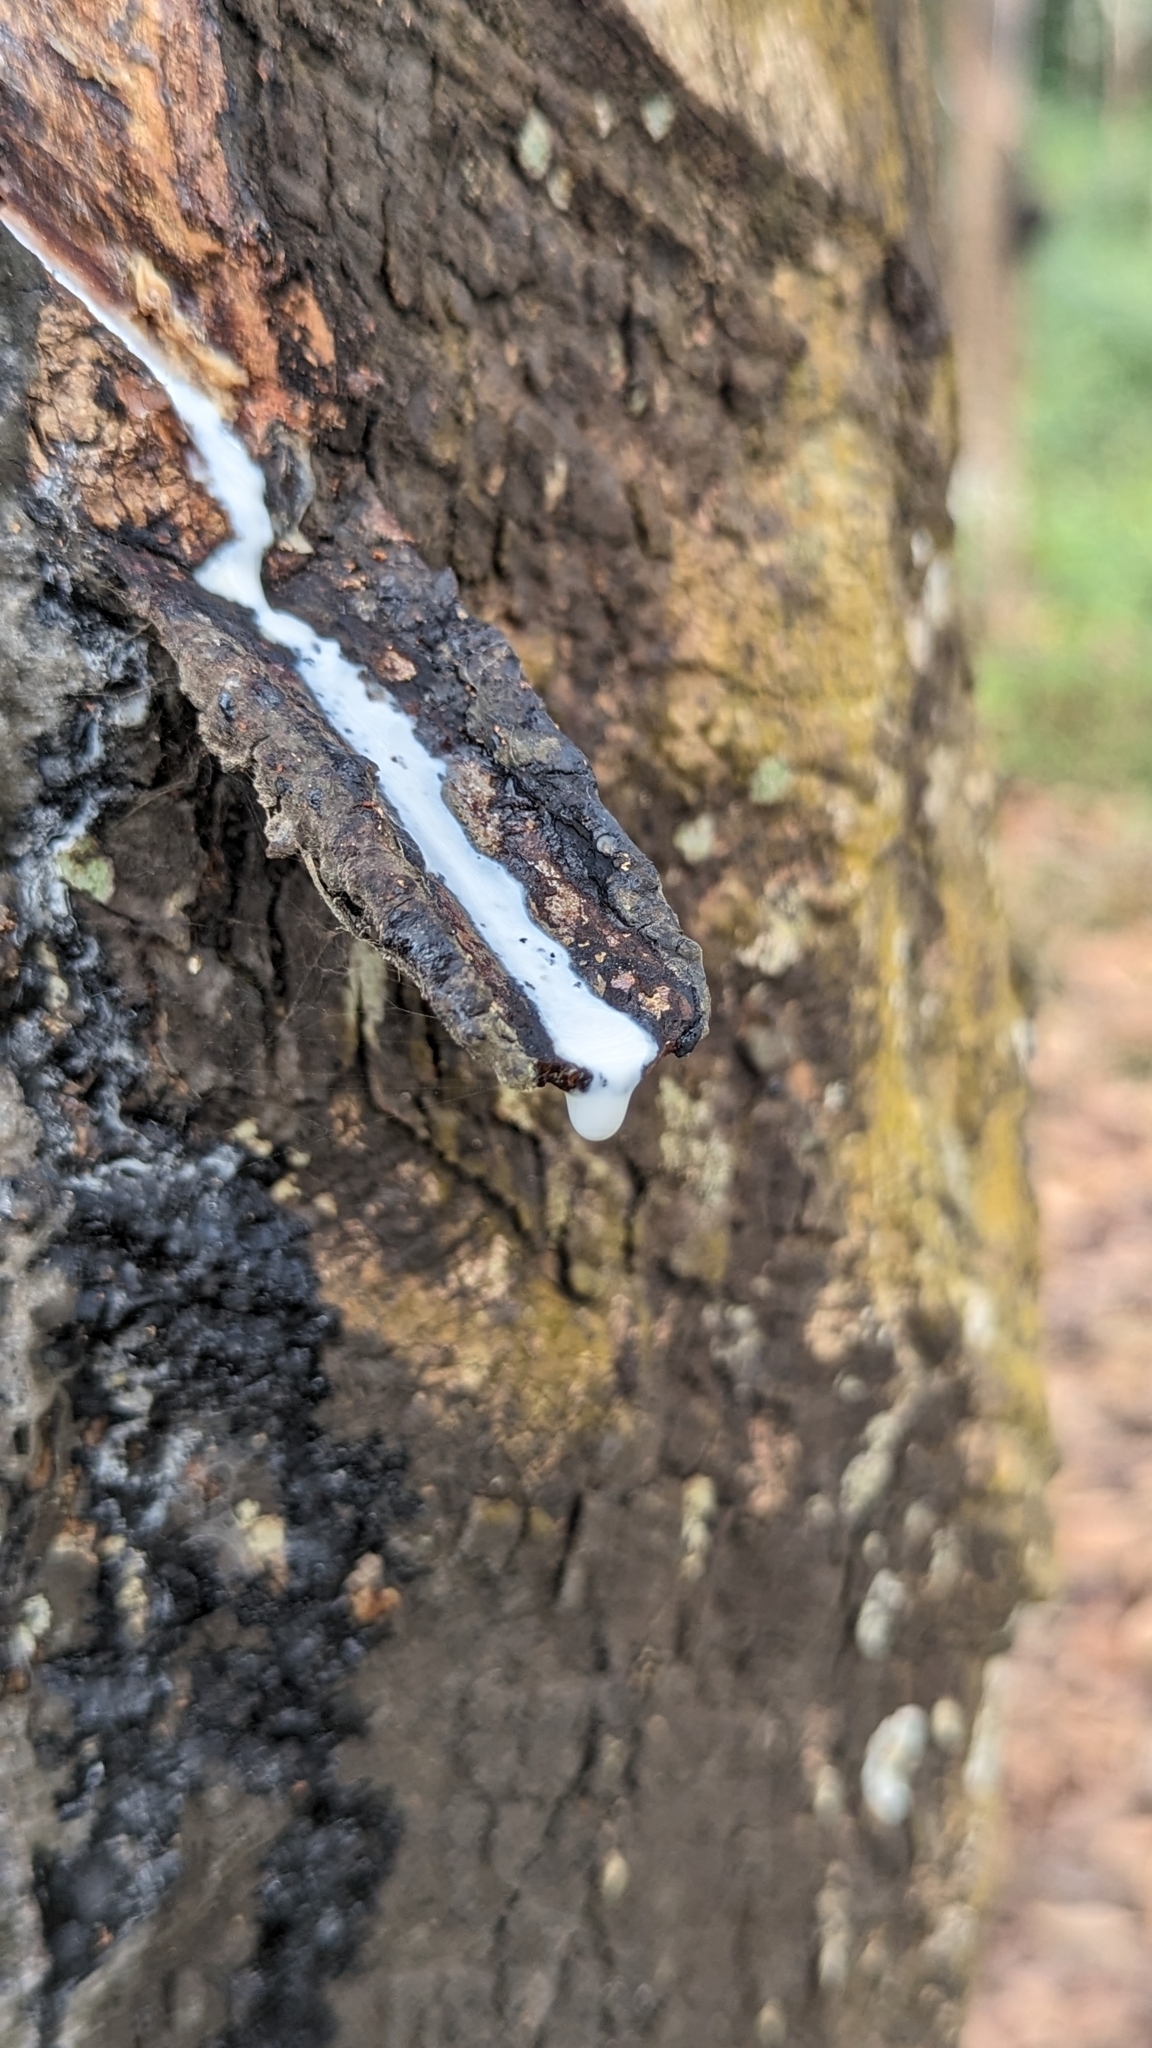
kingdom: Plantae
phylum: Tracheophyta
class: Magnoliopsida
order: Malpighiales
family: Euphorbiaceae
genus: Hevea
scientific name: Hevea brasiliensis
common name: Natural rubber
